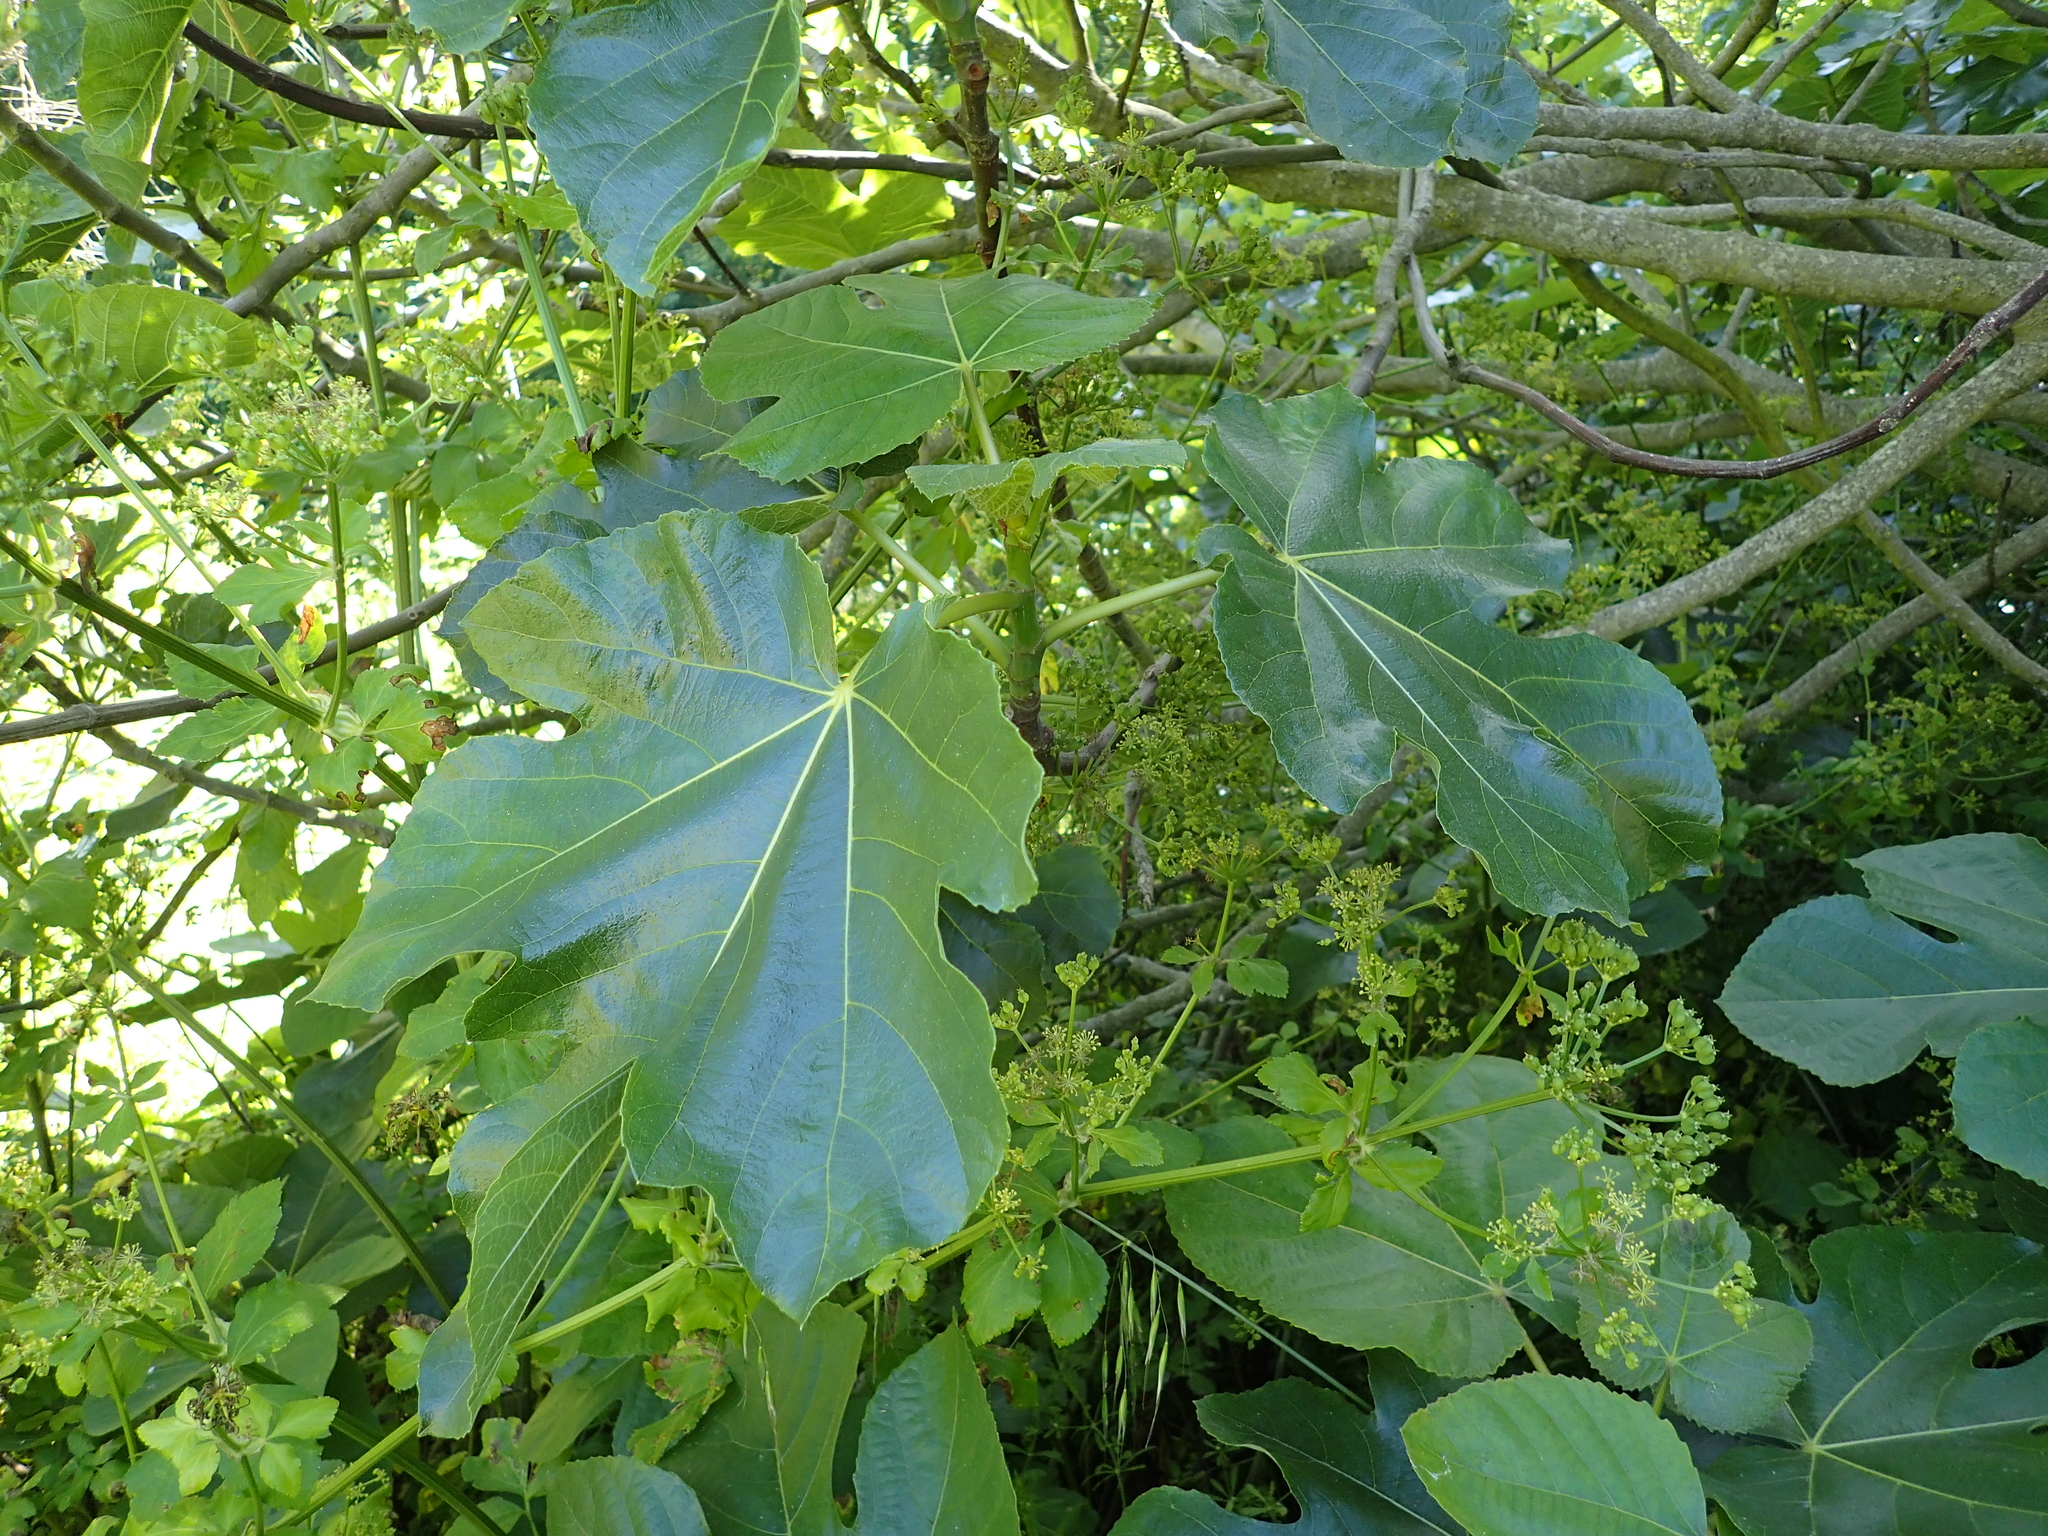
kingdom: Plantae
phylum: Tracheophyta
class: Magnoliopsida
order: Rosales
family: Moraceae
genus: Ficus
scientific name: Ficus carica
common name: Fig
